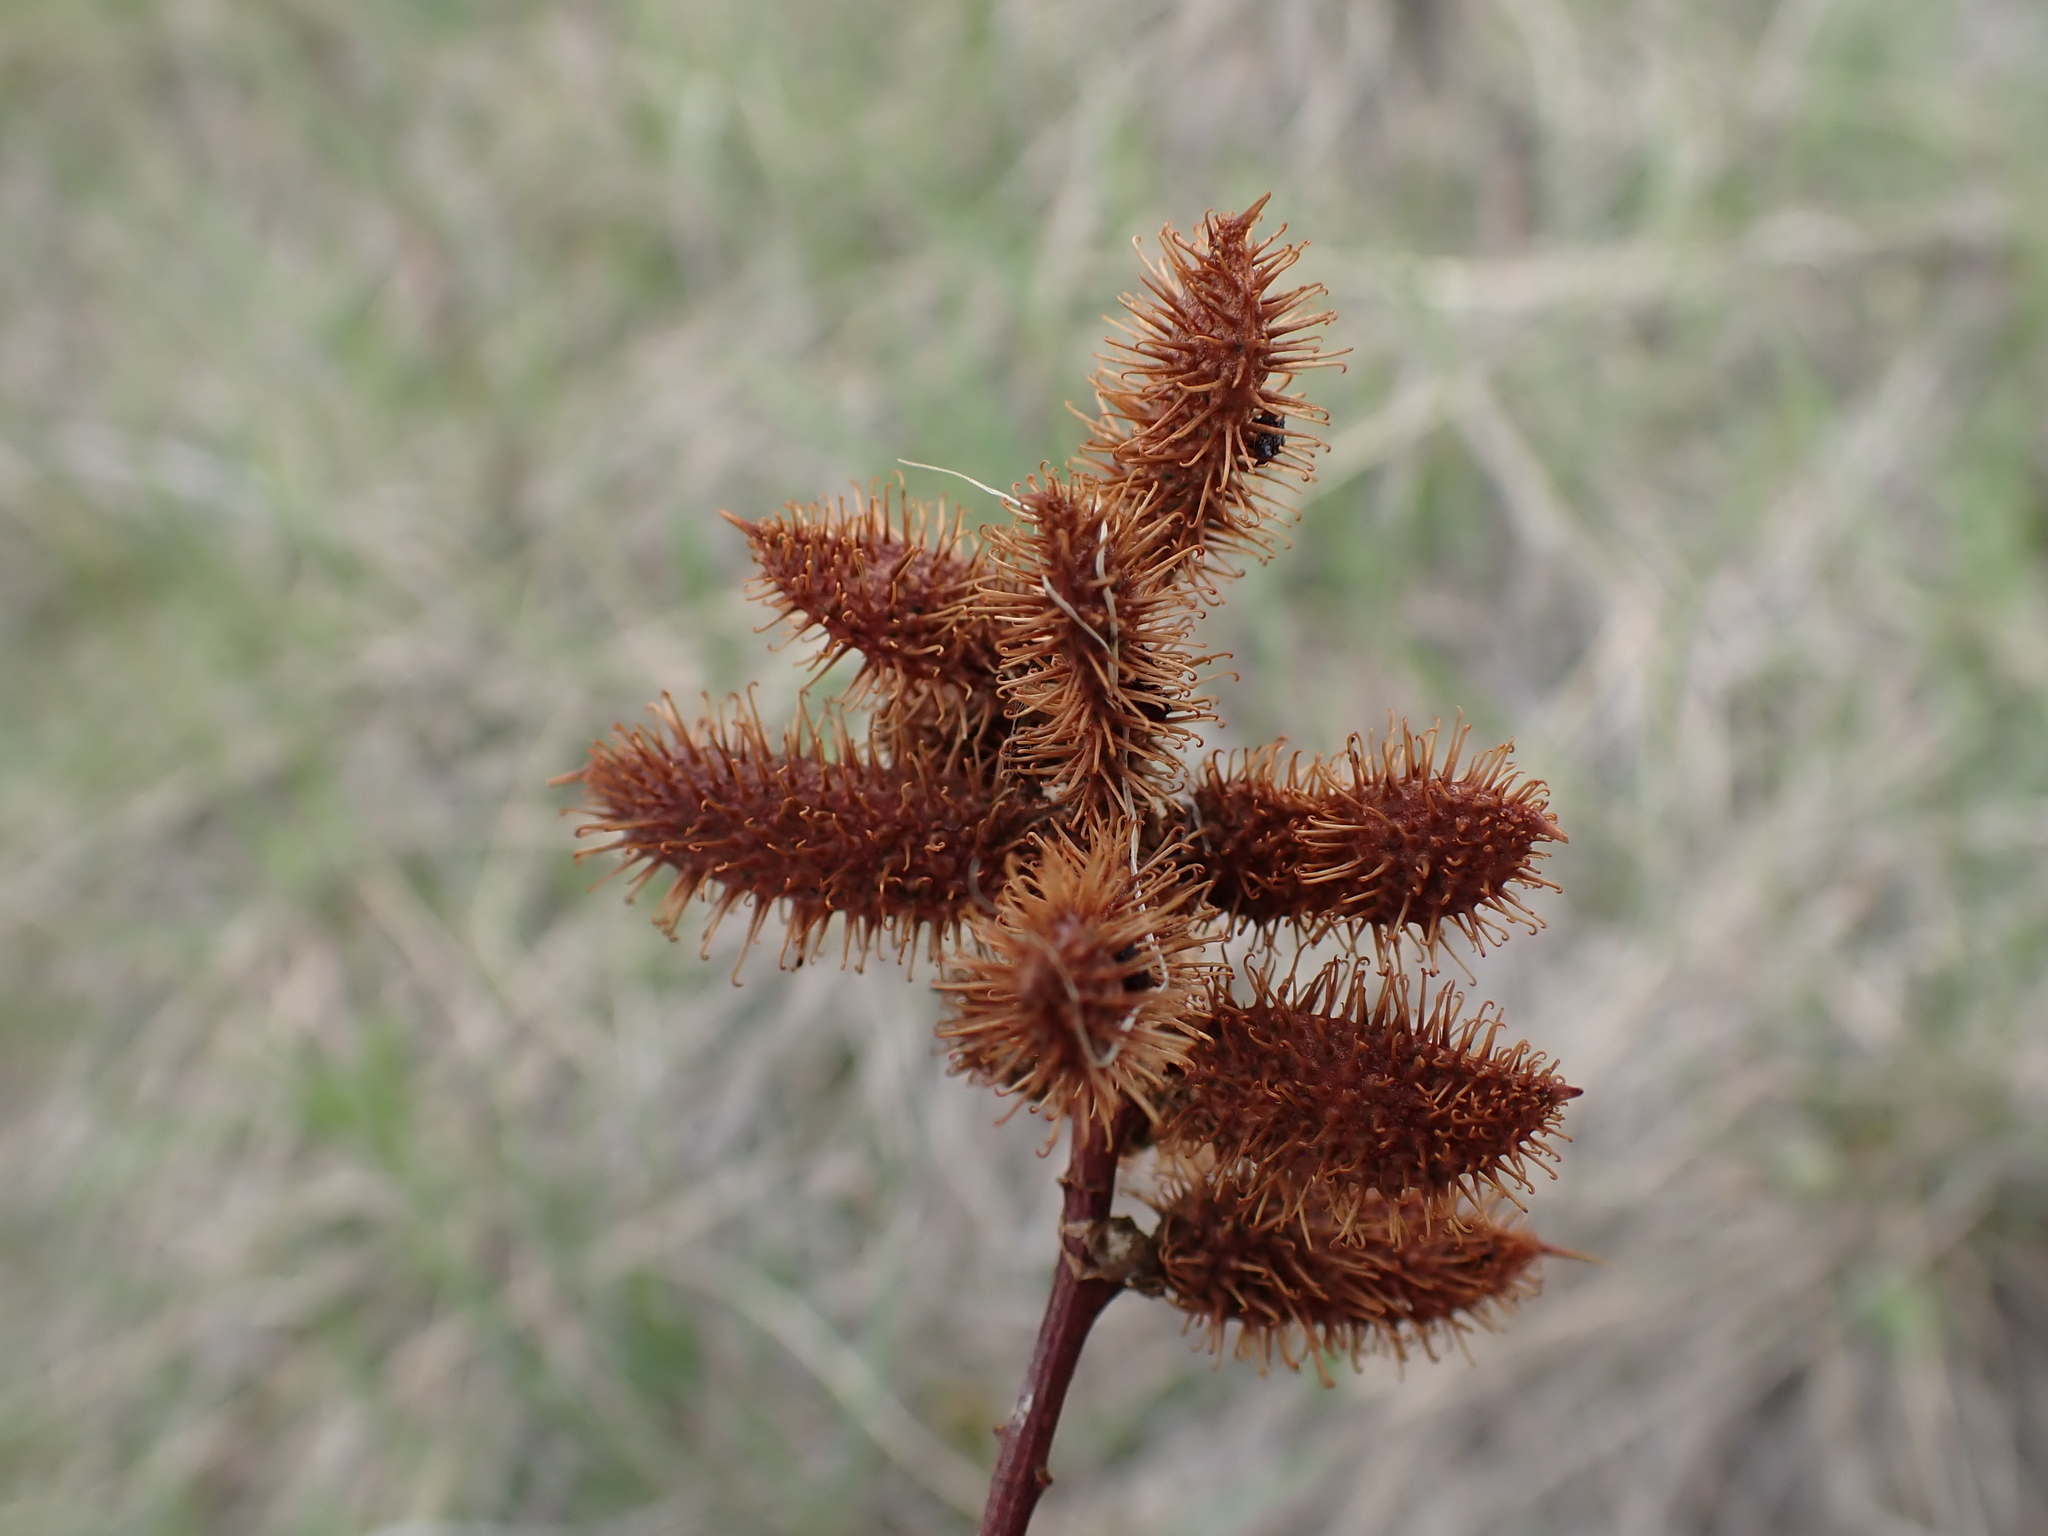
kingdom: Plantae
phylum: Tracheophyta
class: Magnoliopsida
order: Fabales
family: Fabaceae
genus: Glycyrrhiza
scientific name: Glycyrrhiza lepidota
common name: American liquorice
